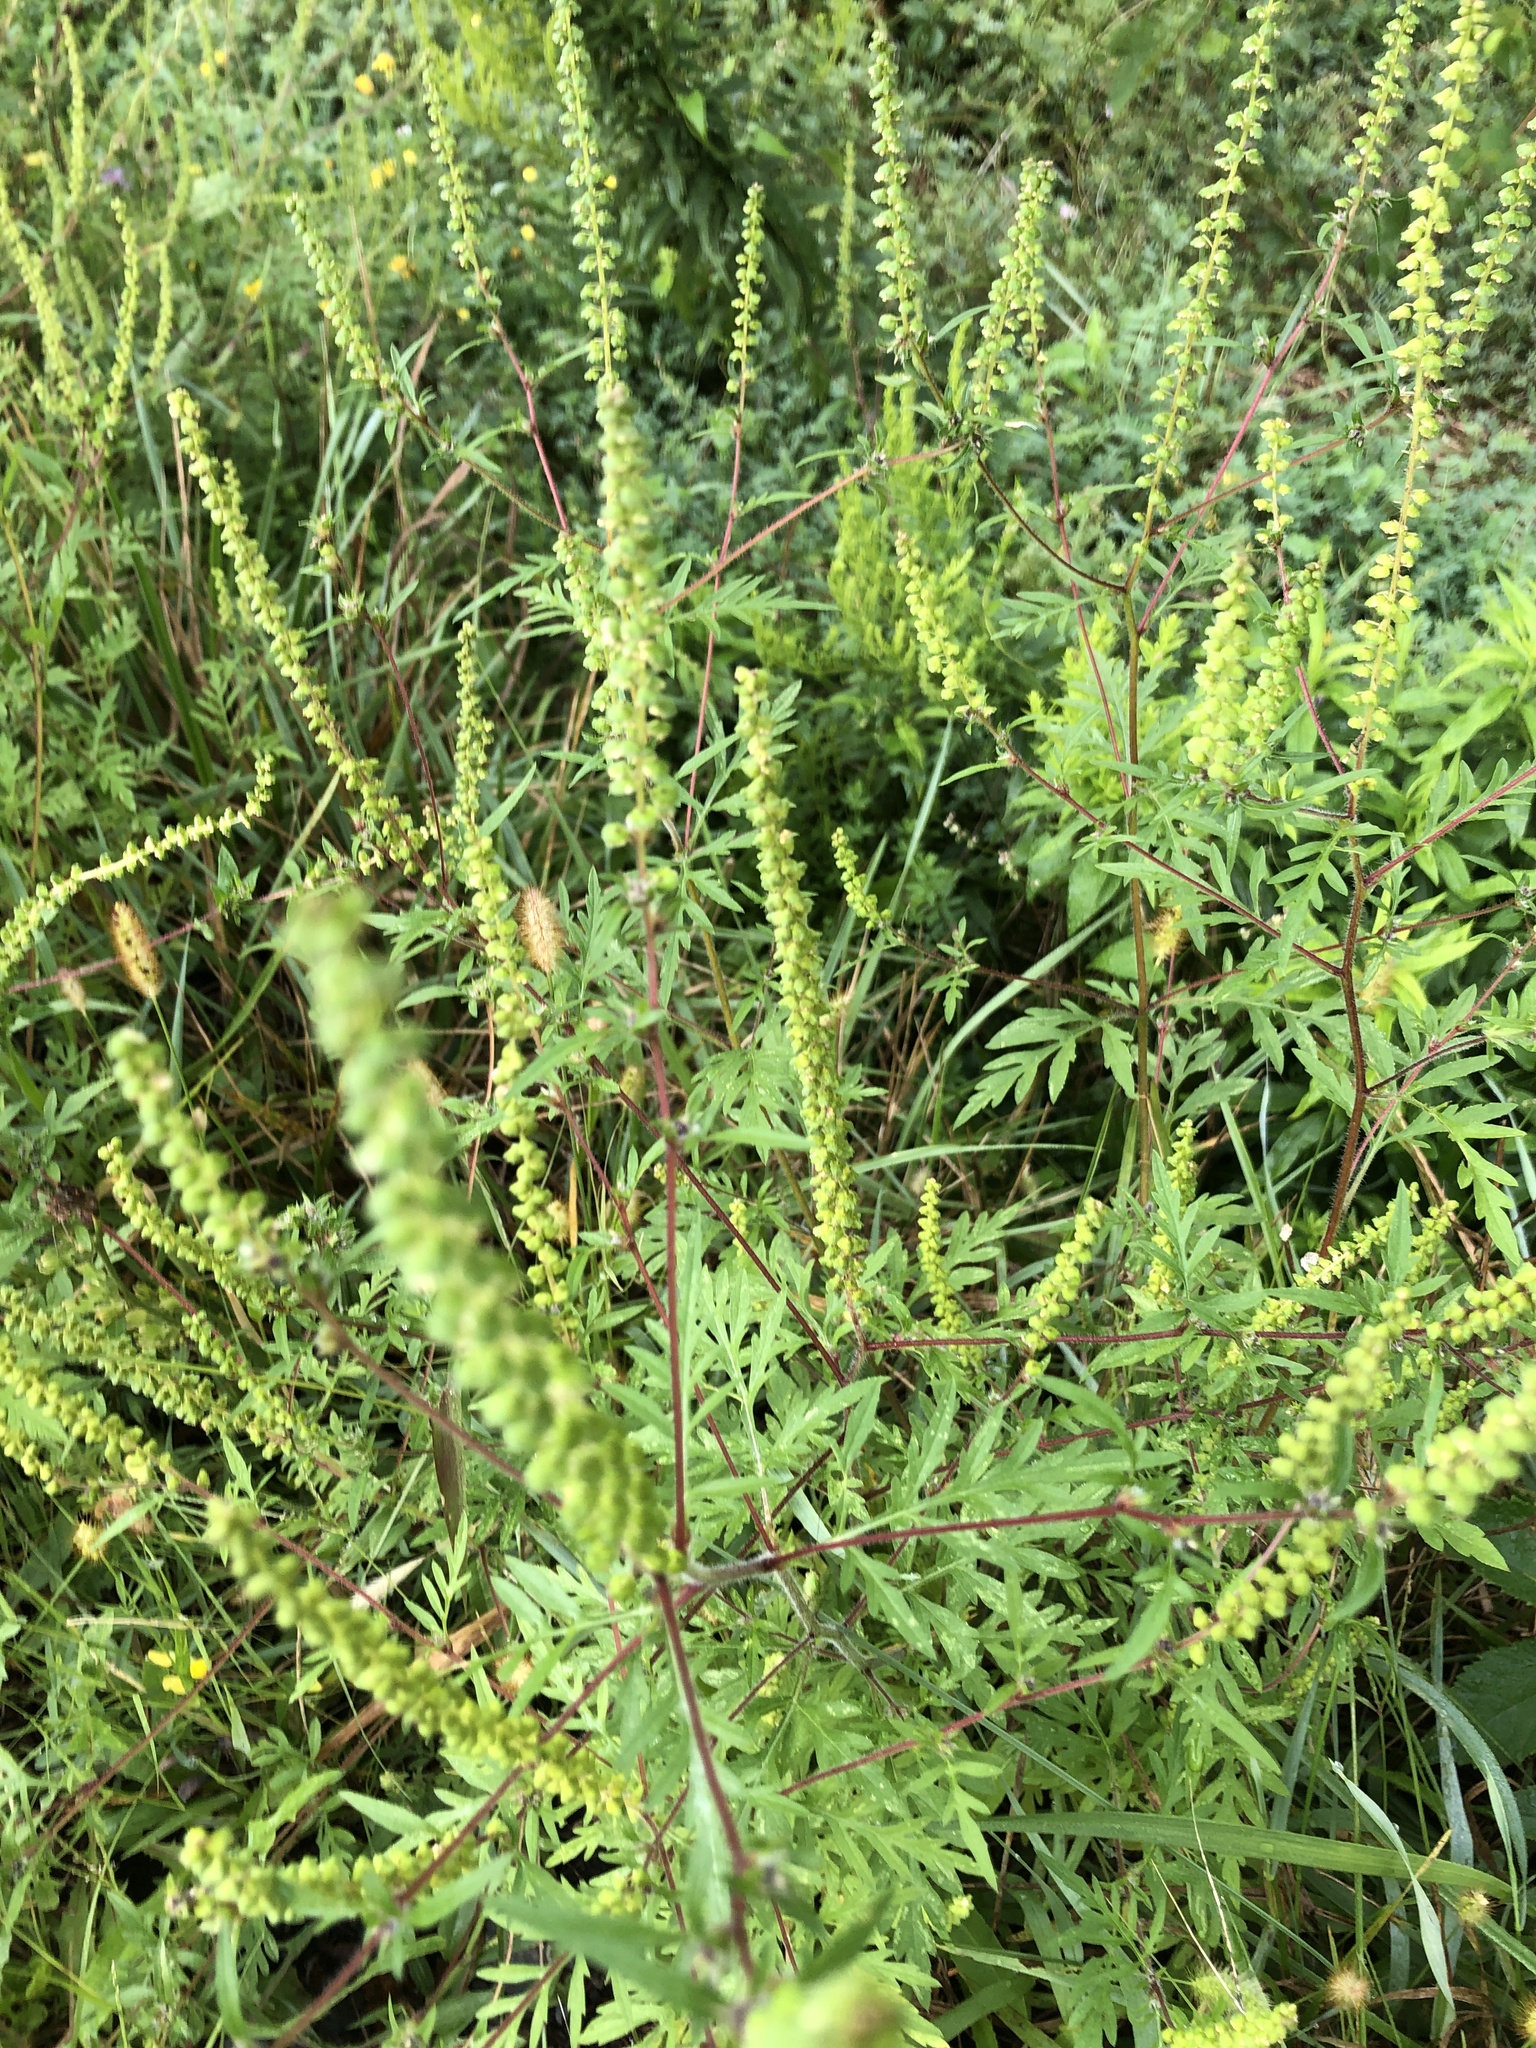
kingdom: Plantae
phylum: Tracheophyta
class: Magnoliopsida
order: Asterales
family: Asteraceae
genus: Ambrosia
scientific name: Ambrosia artemisiifolia
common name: Annual ragweed
